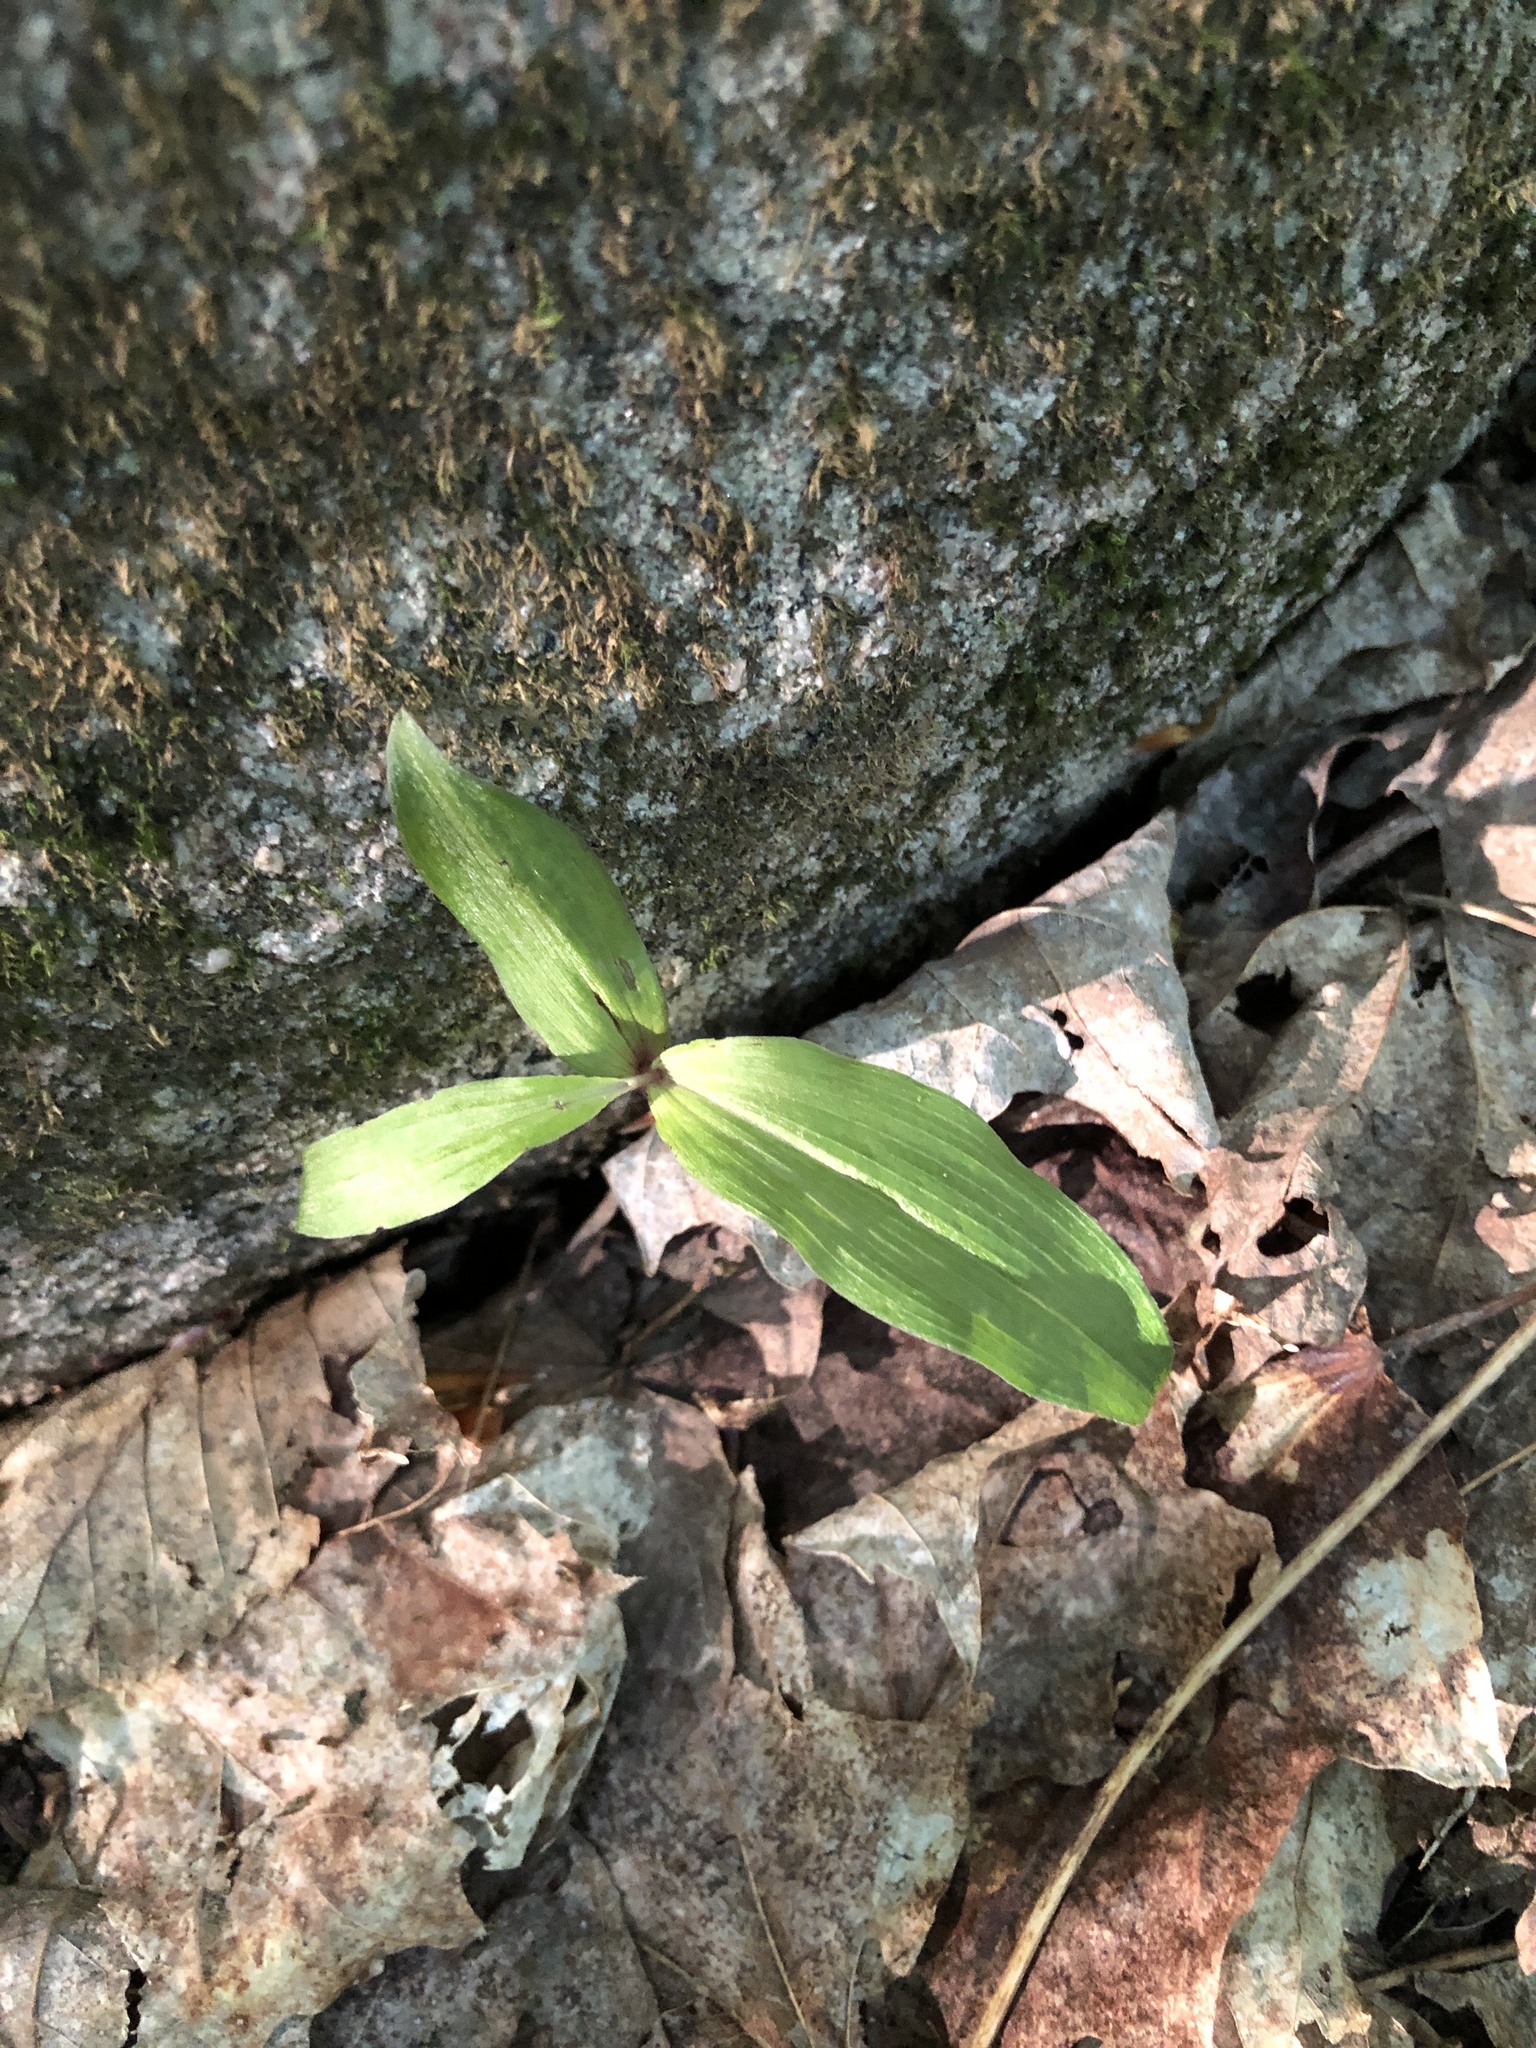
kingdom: Plantae
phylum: Tracheophyta
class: Liliopsida
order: Asparagales
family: Orchidaceae
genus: Epipactis
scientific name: Epipactis helleborine
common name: Broad-leaved helleborine
